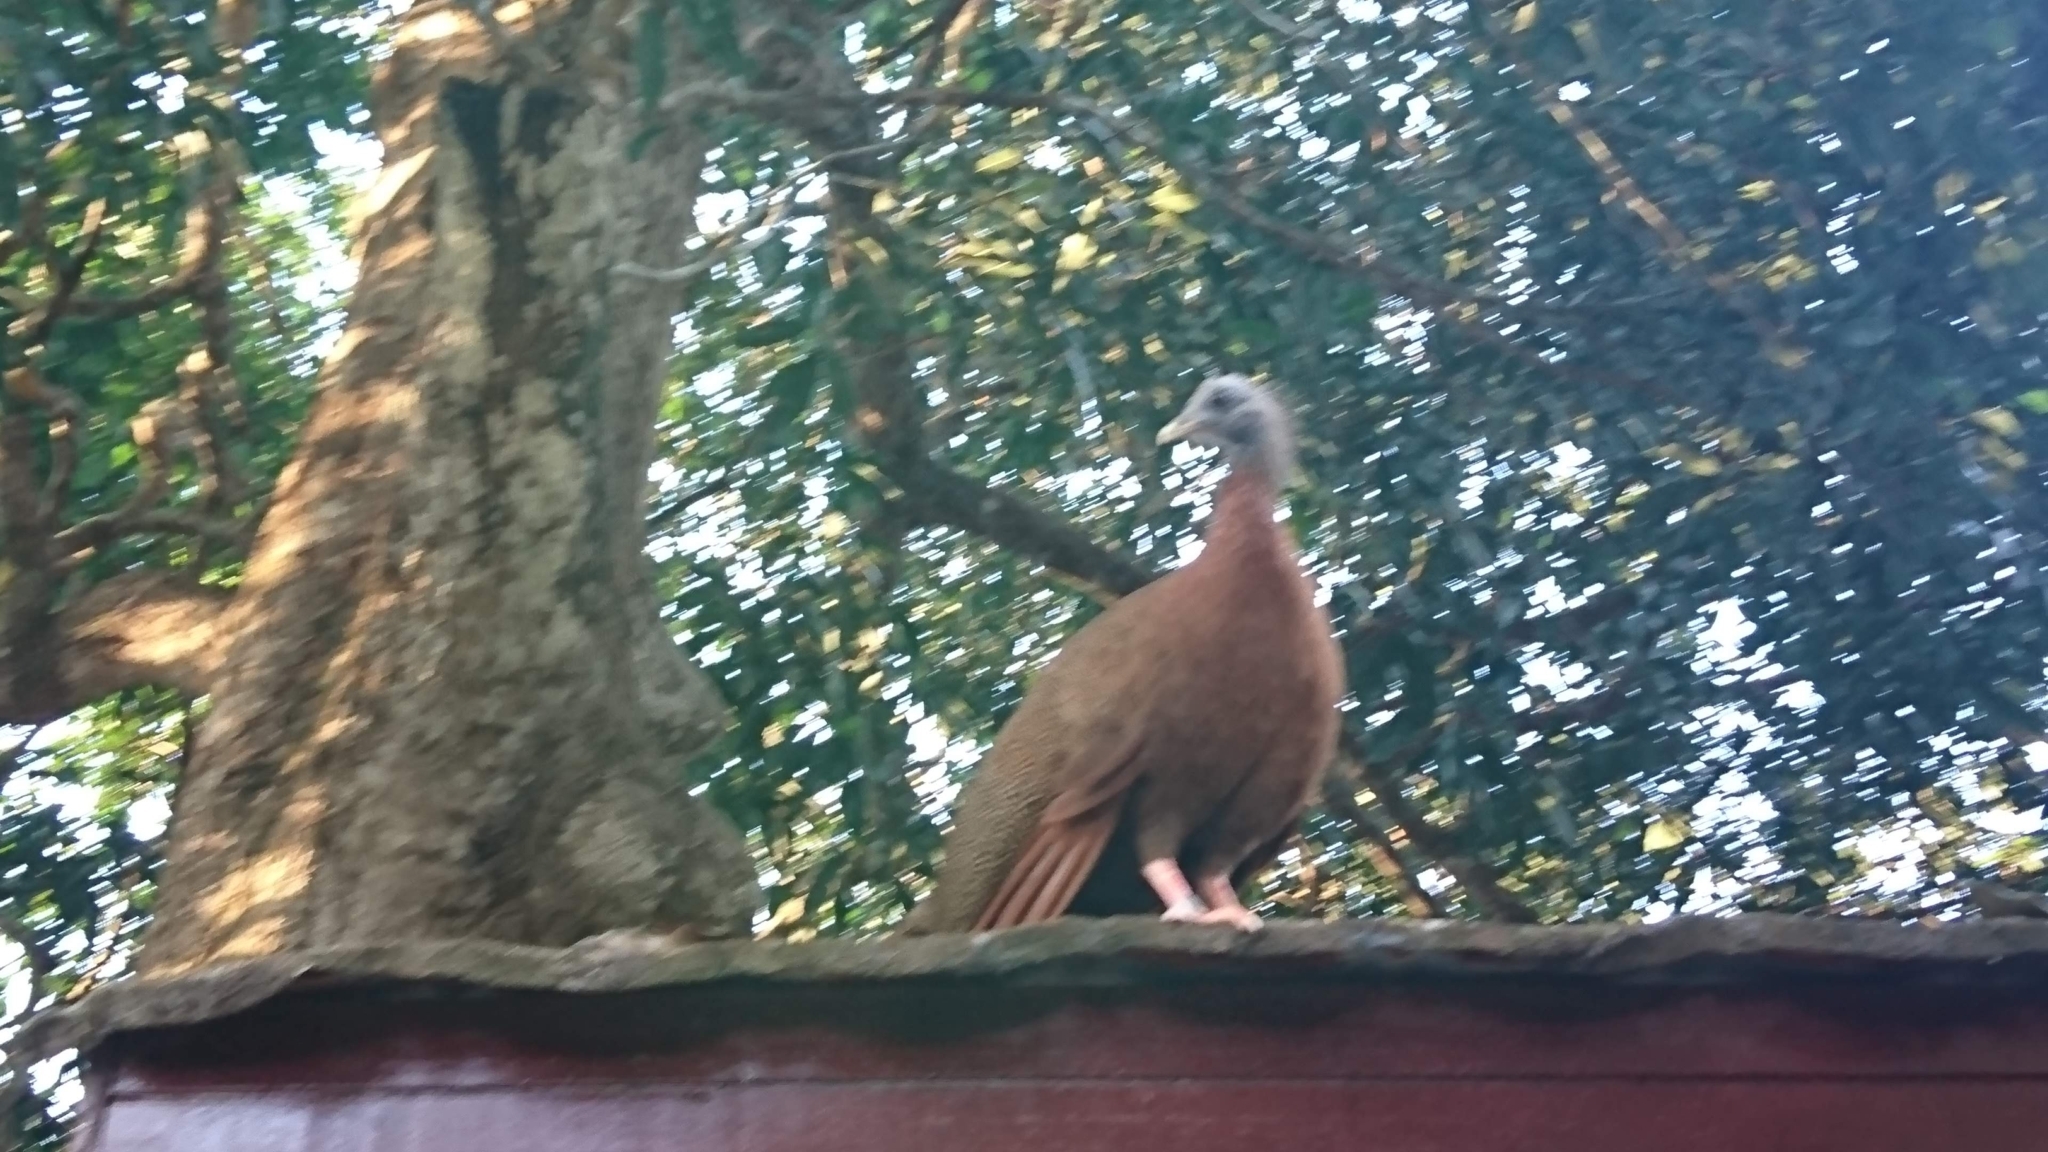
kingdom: Animalia
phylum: Chordata
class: Aves
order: Galliformes
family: Phasianidae
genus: Argusianus
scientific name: Argusianus argus
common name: Great argus
